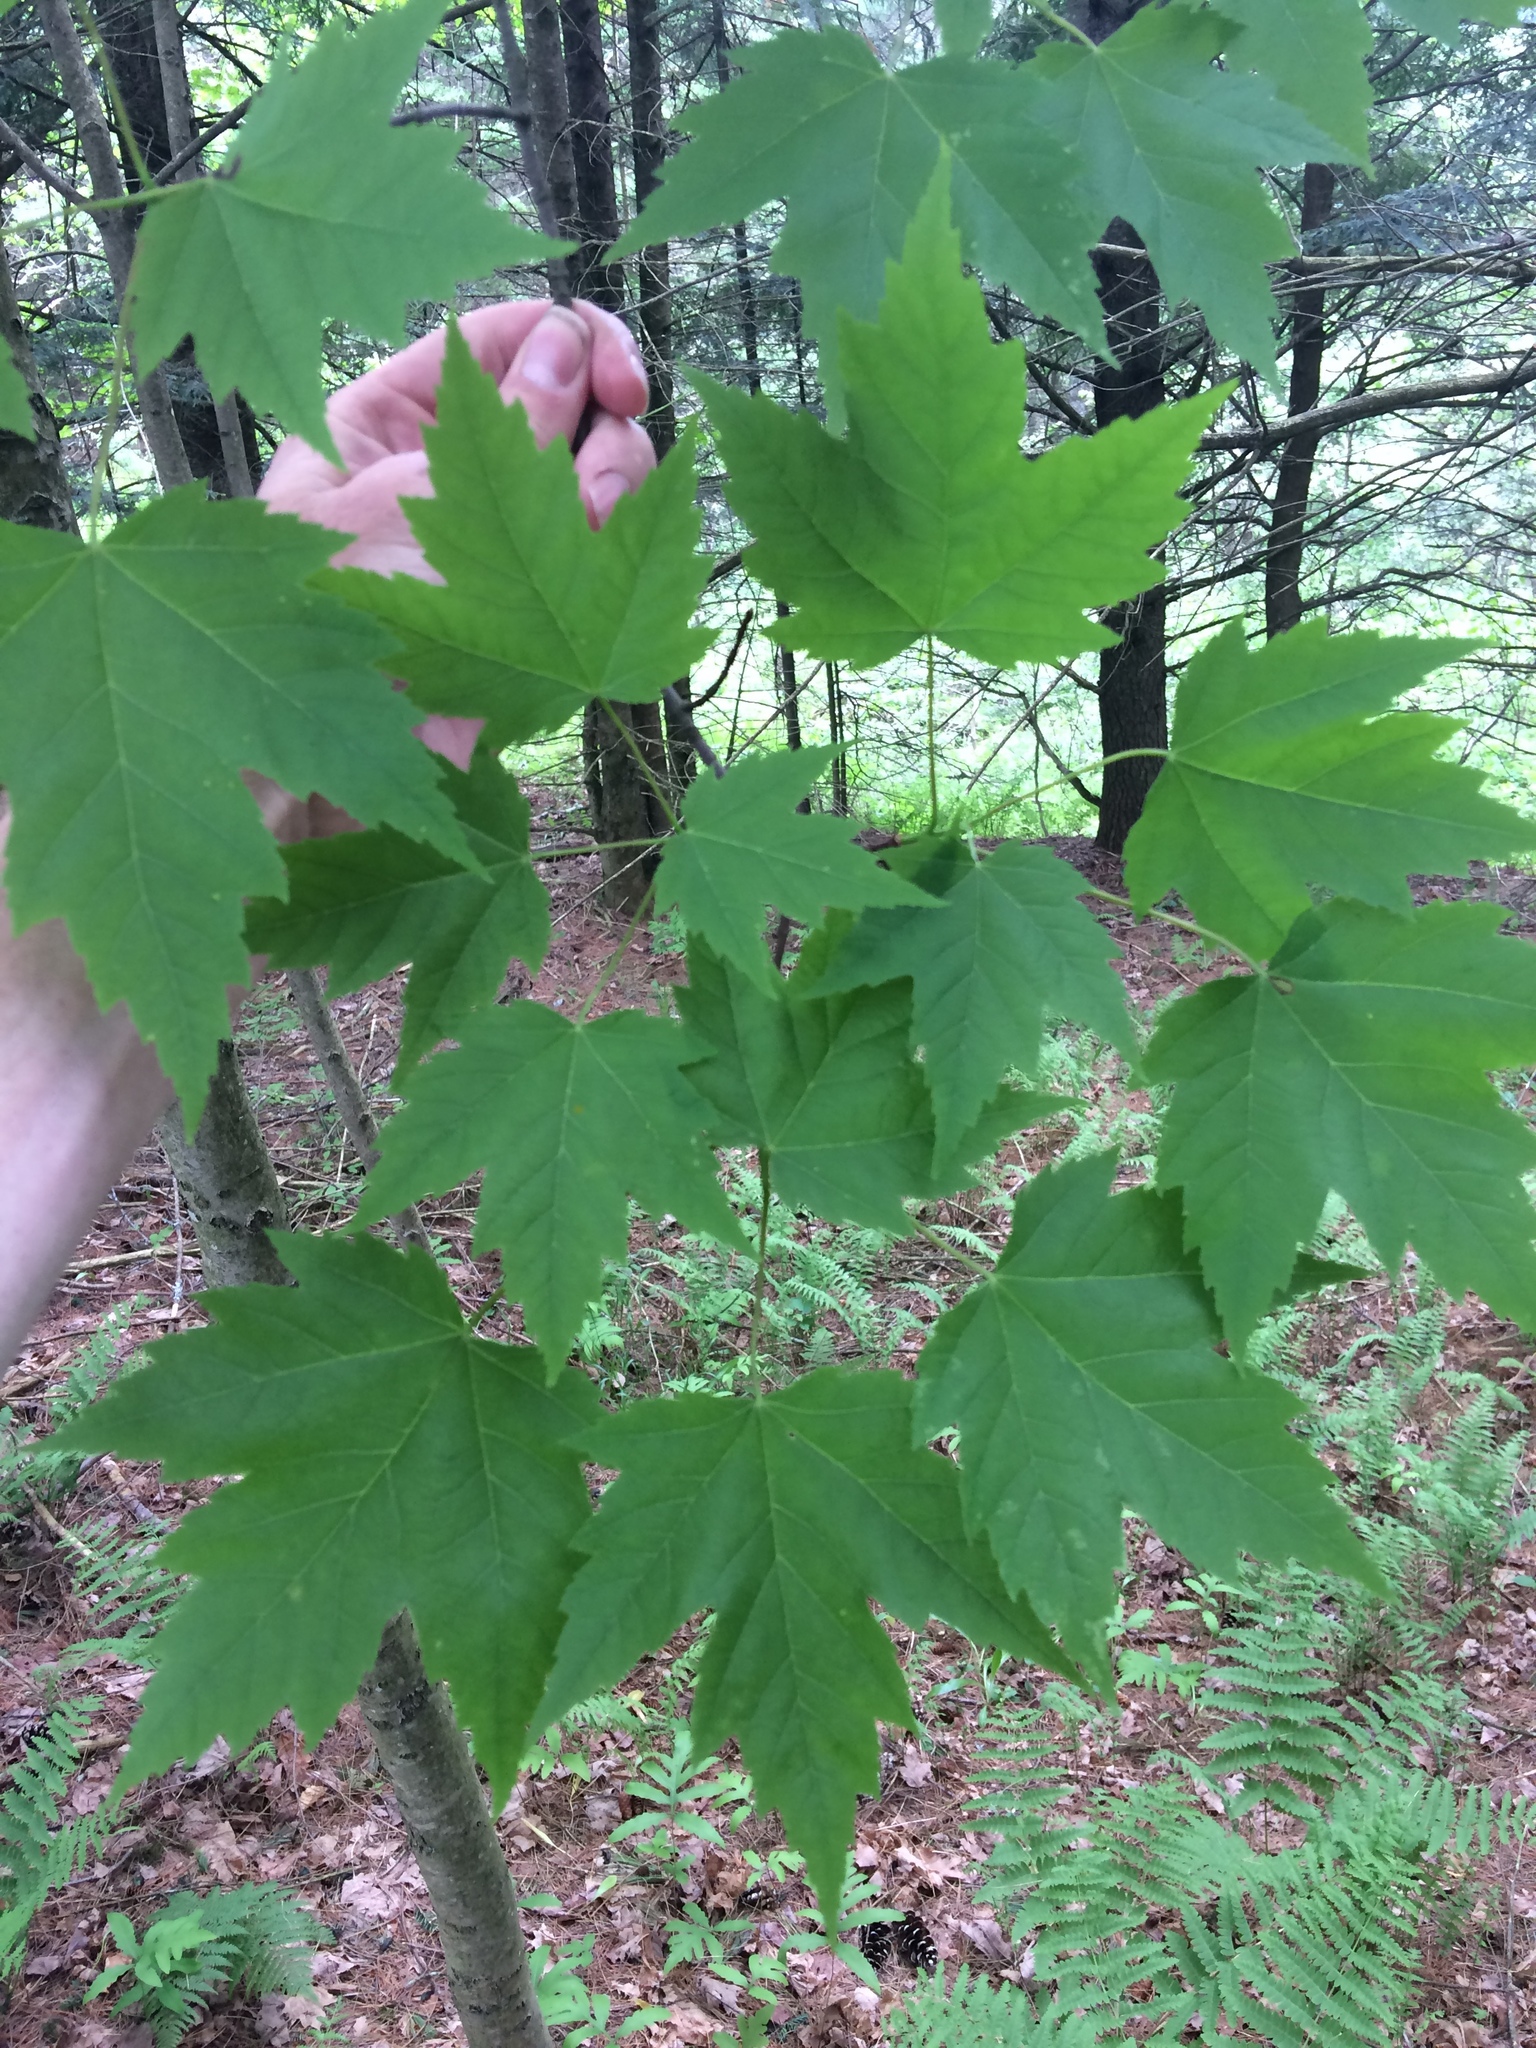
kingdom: Plantae
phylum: Tracheophyta
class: Magnoliopsida
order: Sapindales
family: Sapindaceae
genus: Acer
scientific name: Acer rubrum
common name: Red maple
